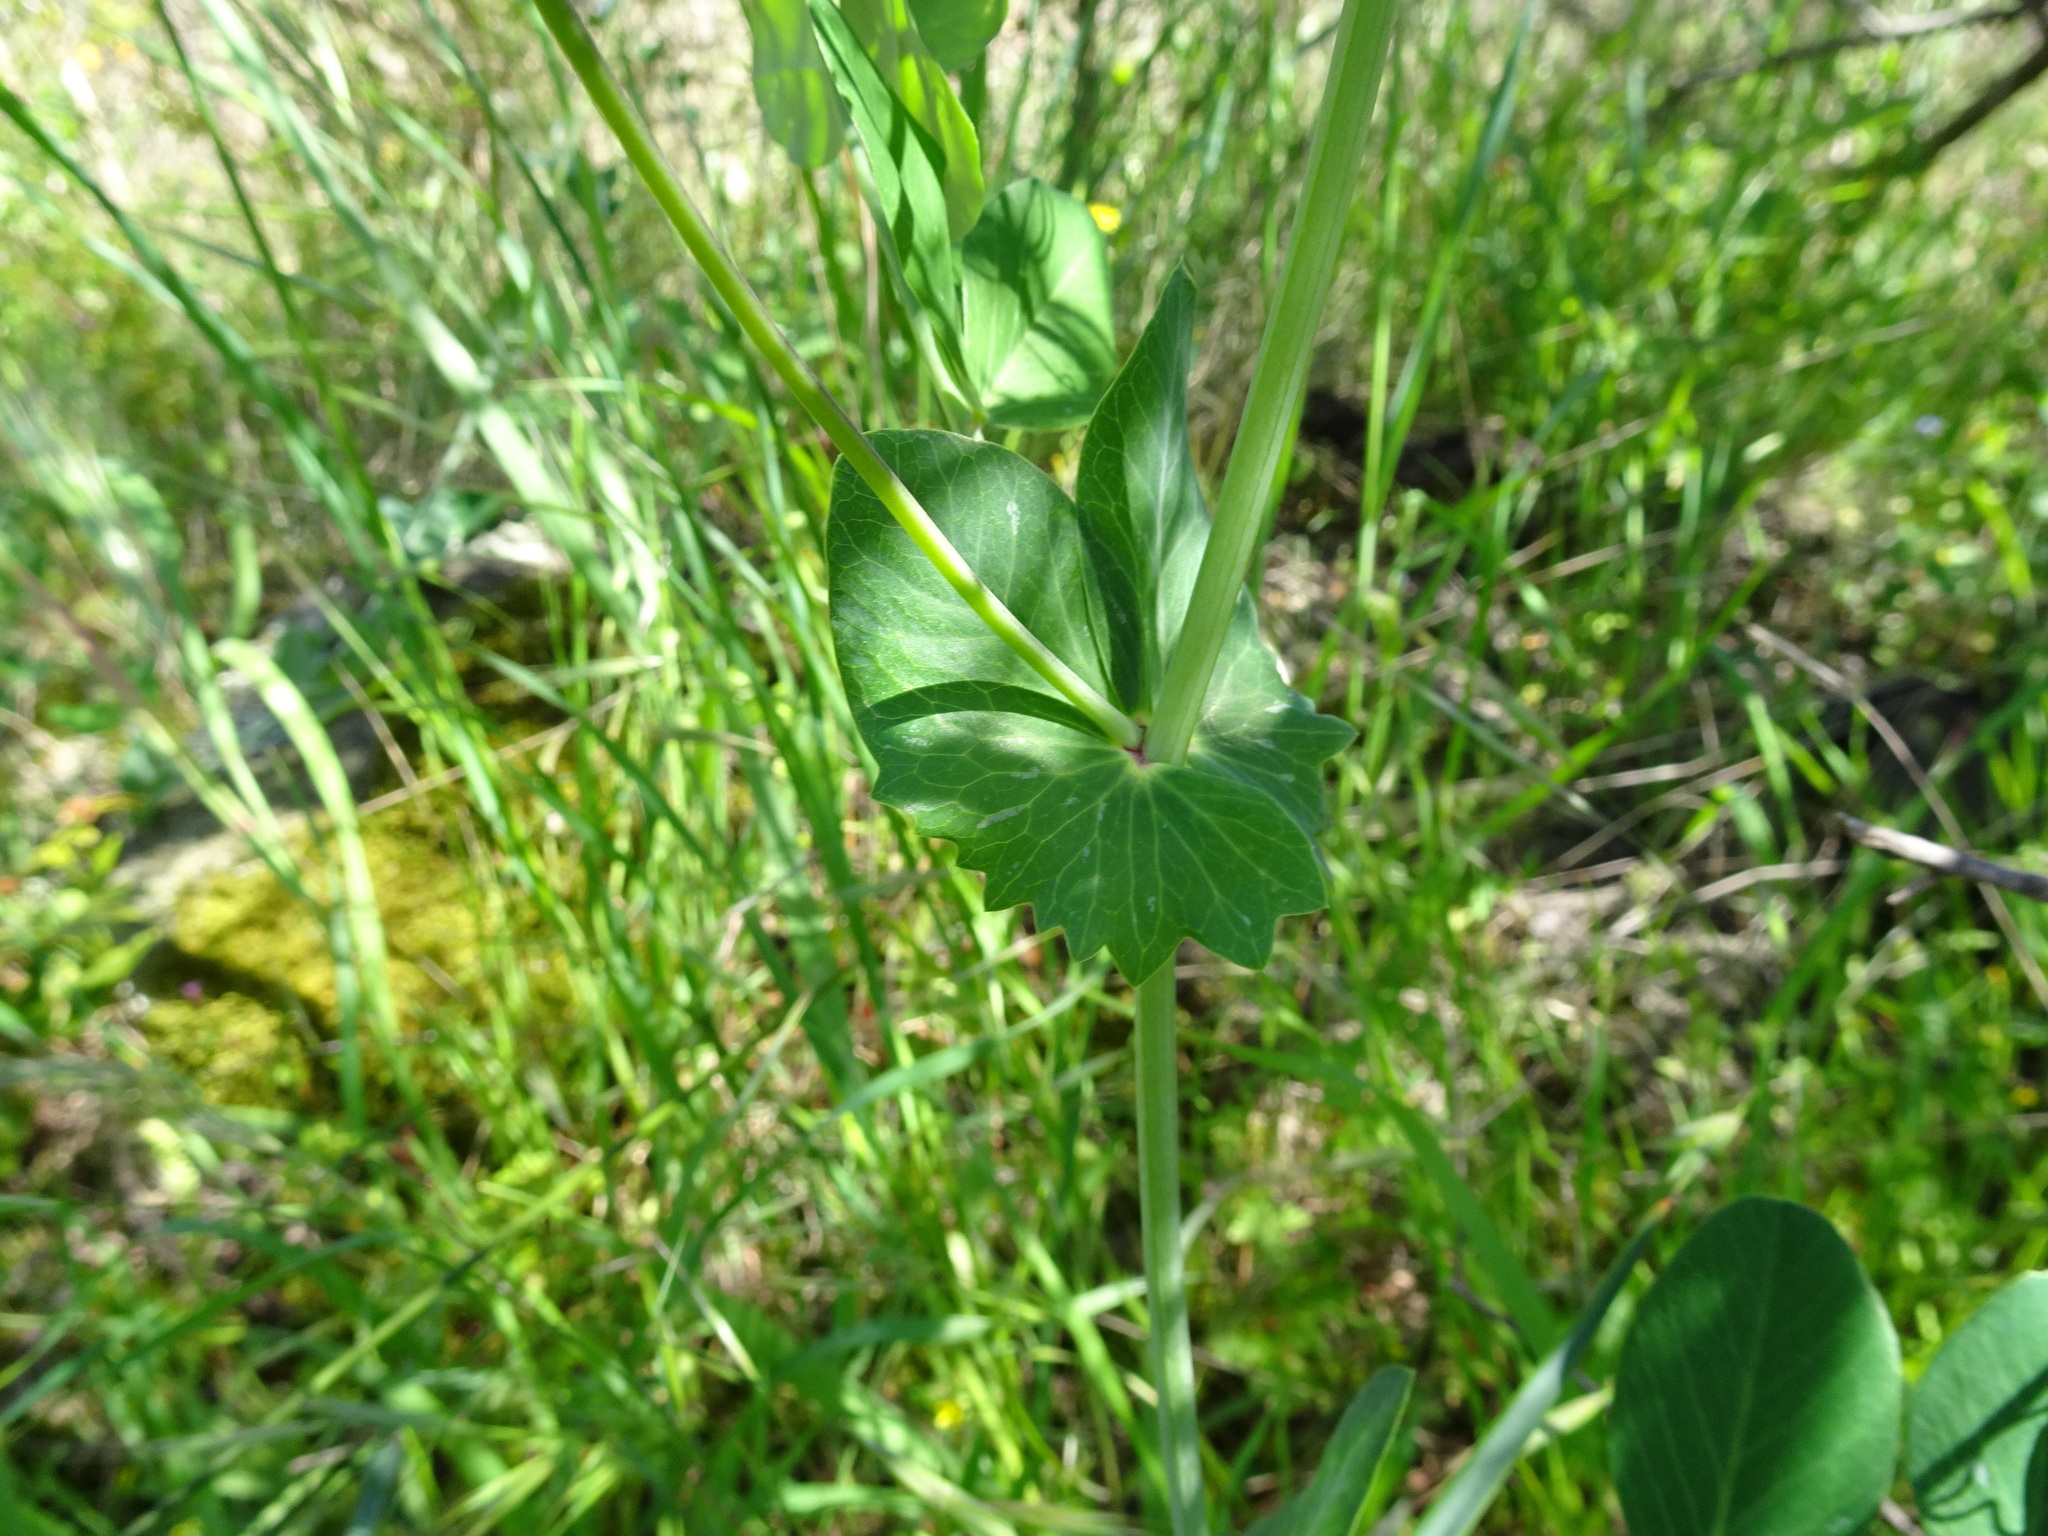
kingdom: Plantae
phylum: Tracheophyta
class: Magnoliopsida
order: Fabales
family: Fabaceae
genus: Lathyrus
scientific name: Lathyrus oleraceus
